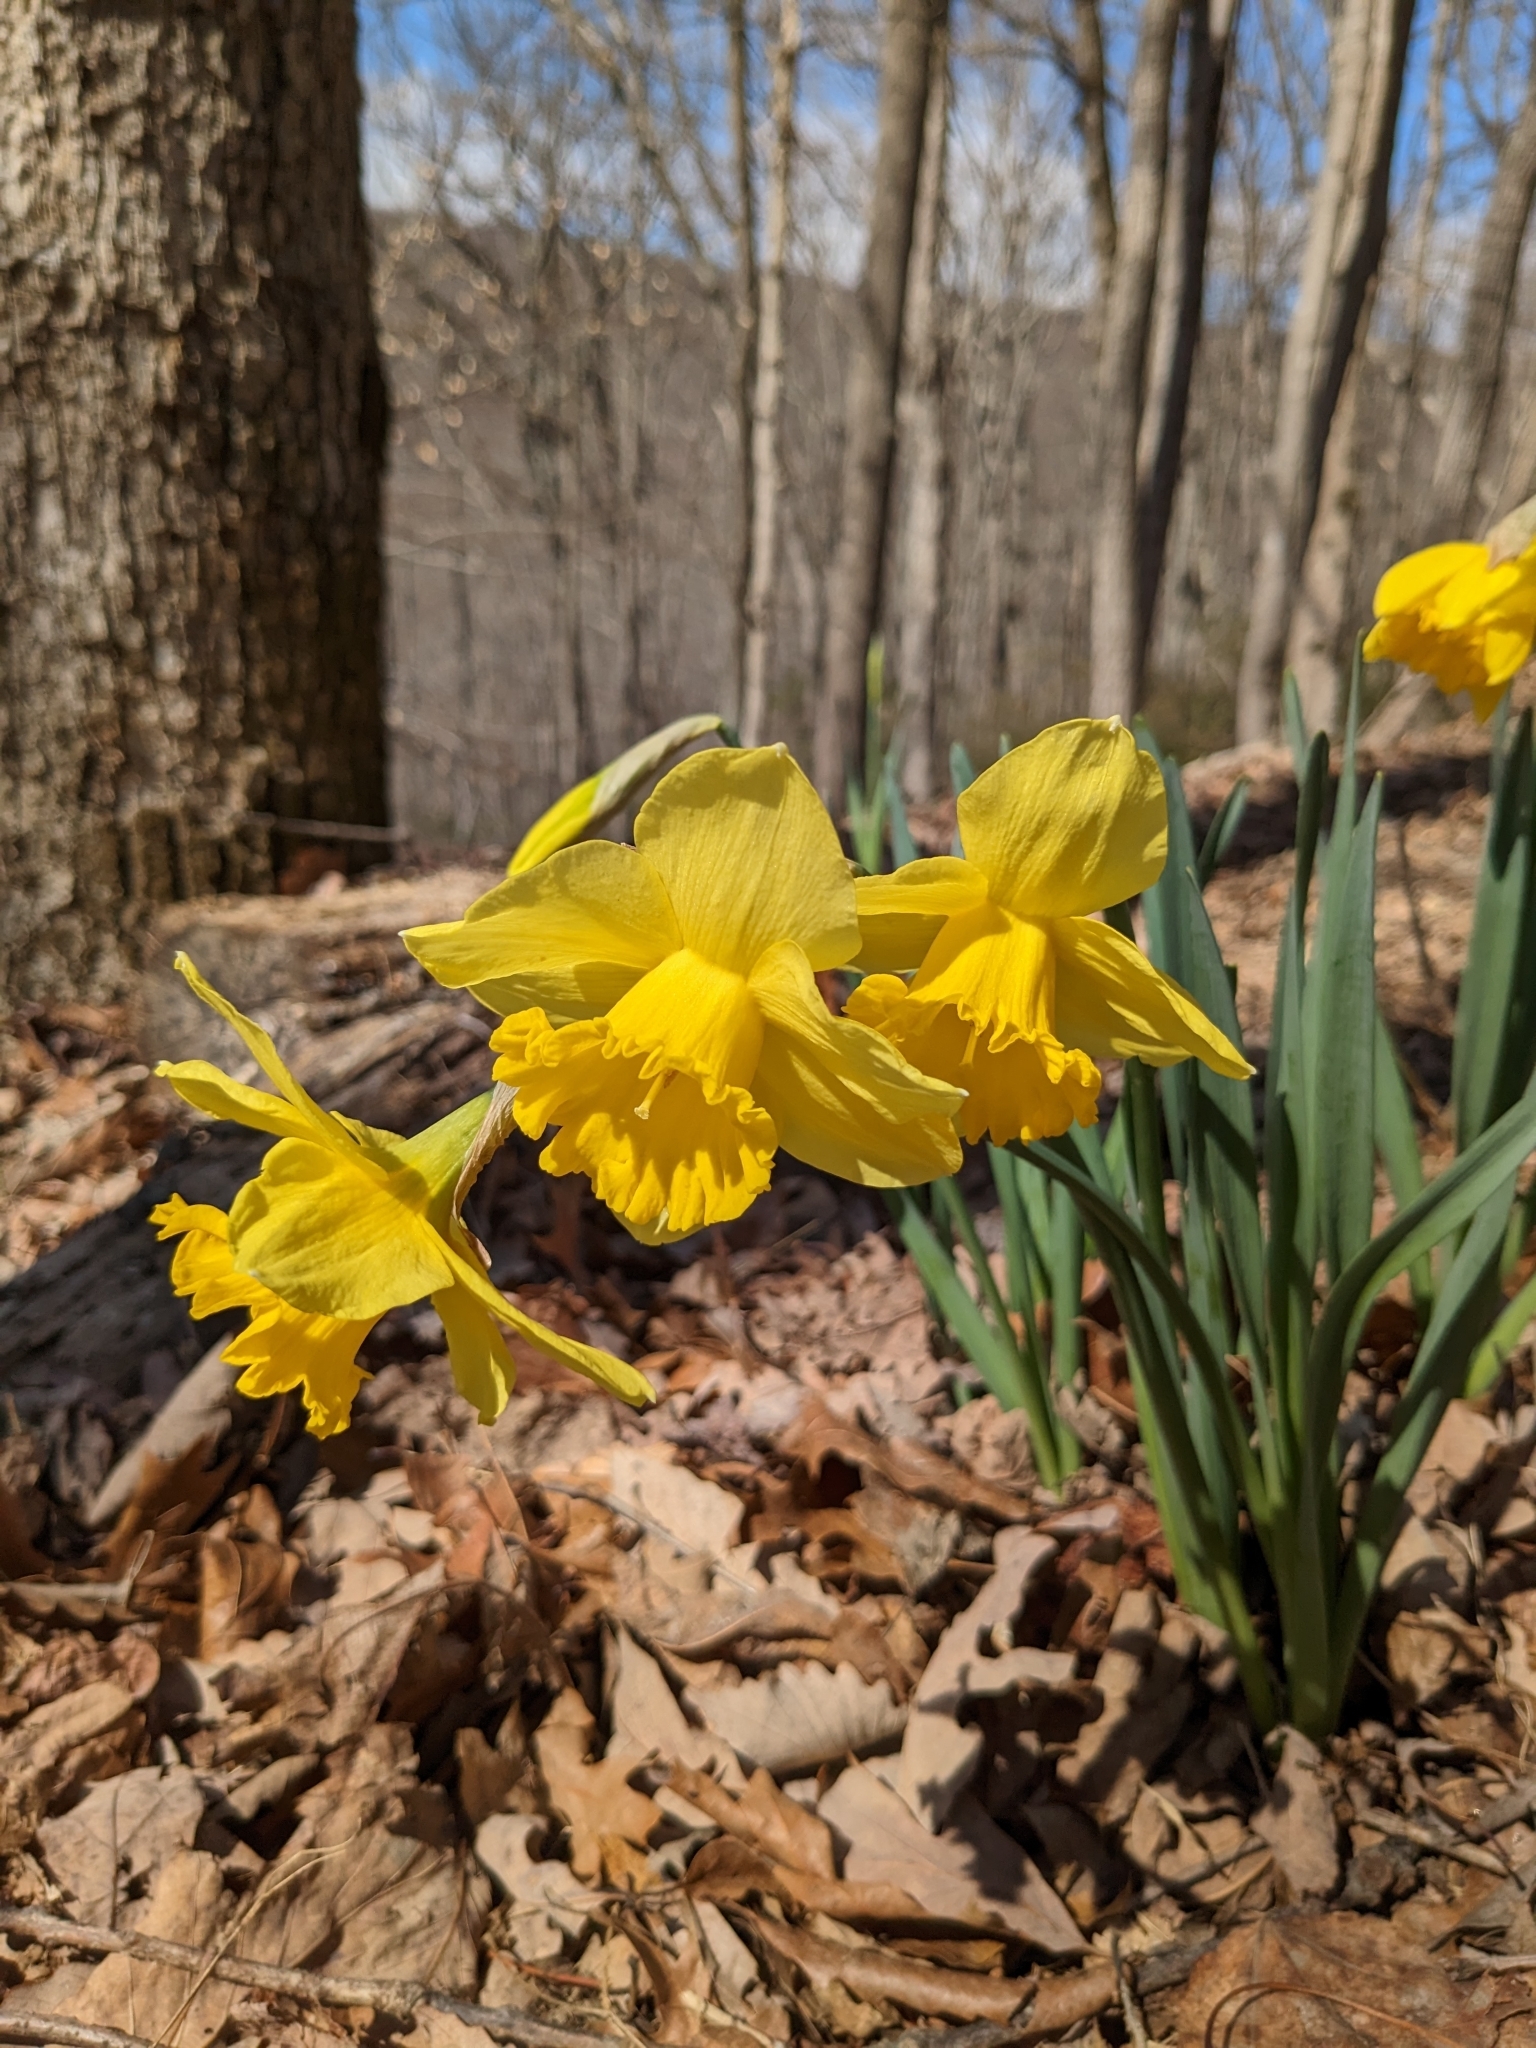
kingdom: Plantae
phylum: Tracheophyta
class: Liliopsida
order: Asparagales
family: Amaryllidaceae
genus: Narcissus
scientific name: Narcissus pseudonarcissus
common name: Daffodil
